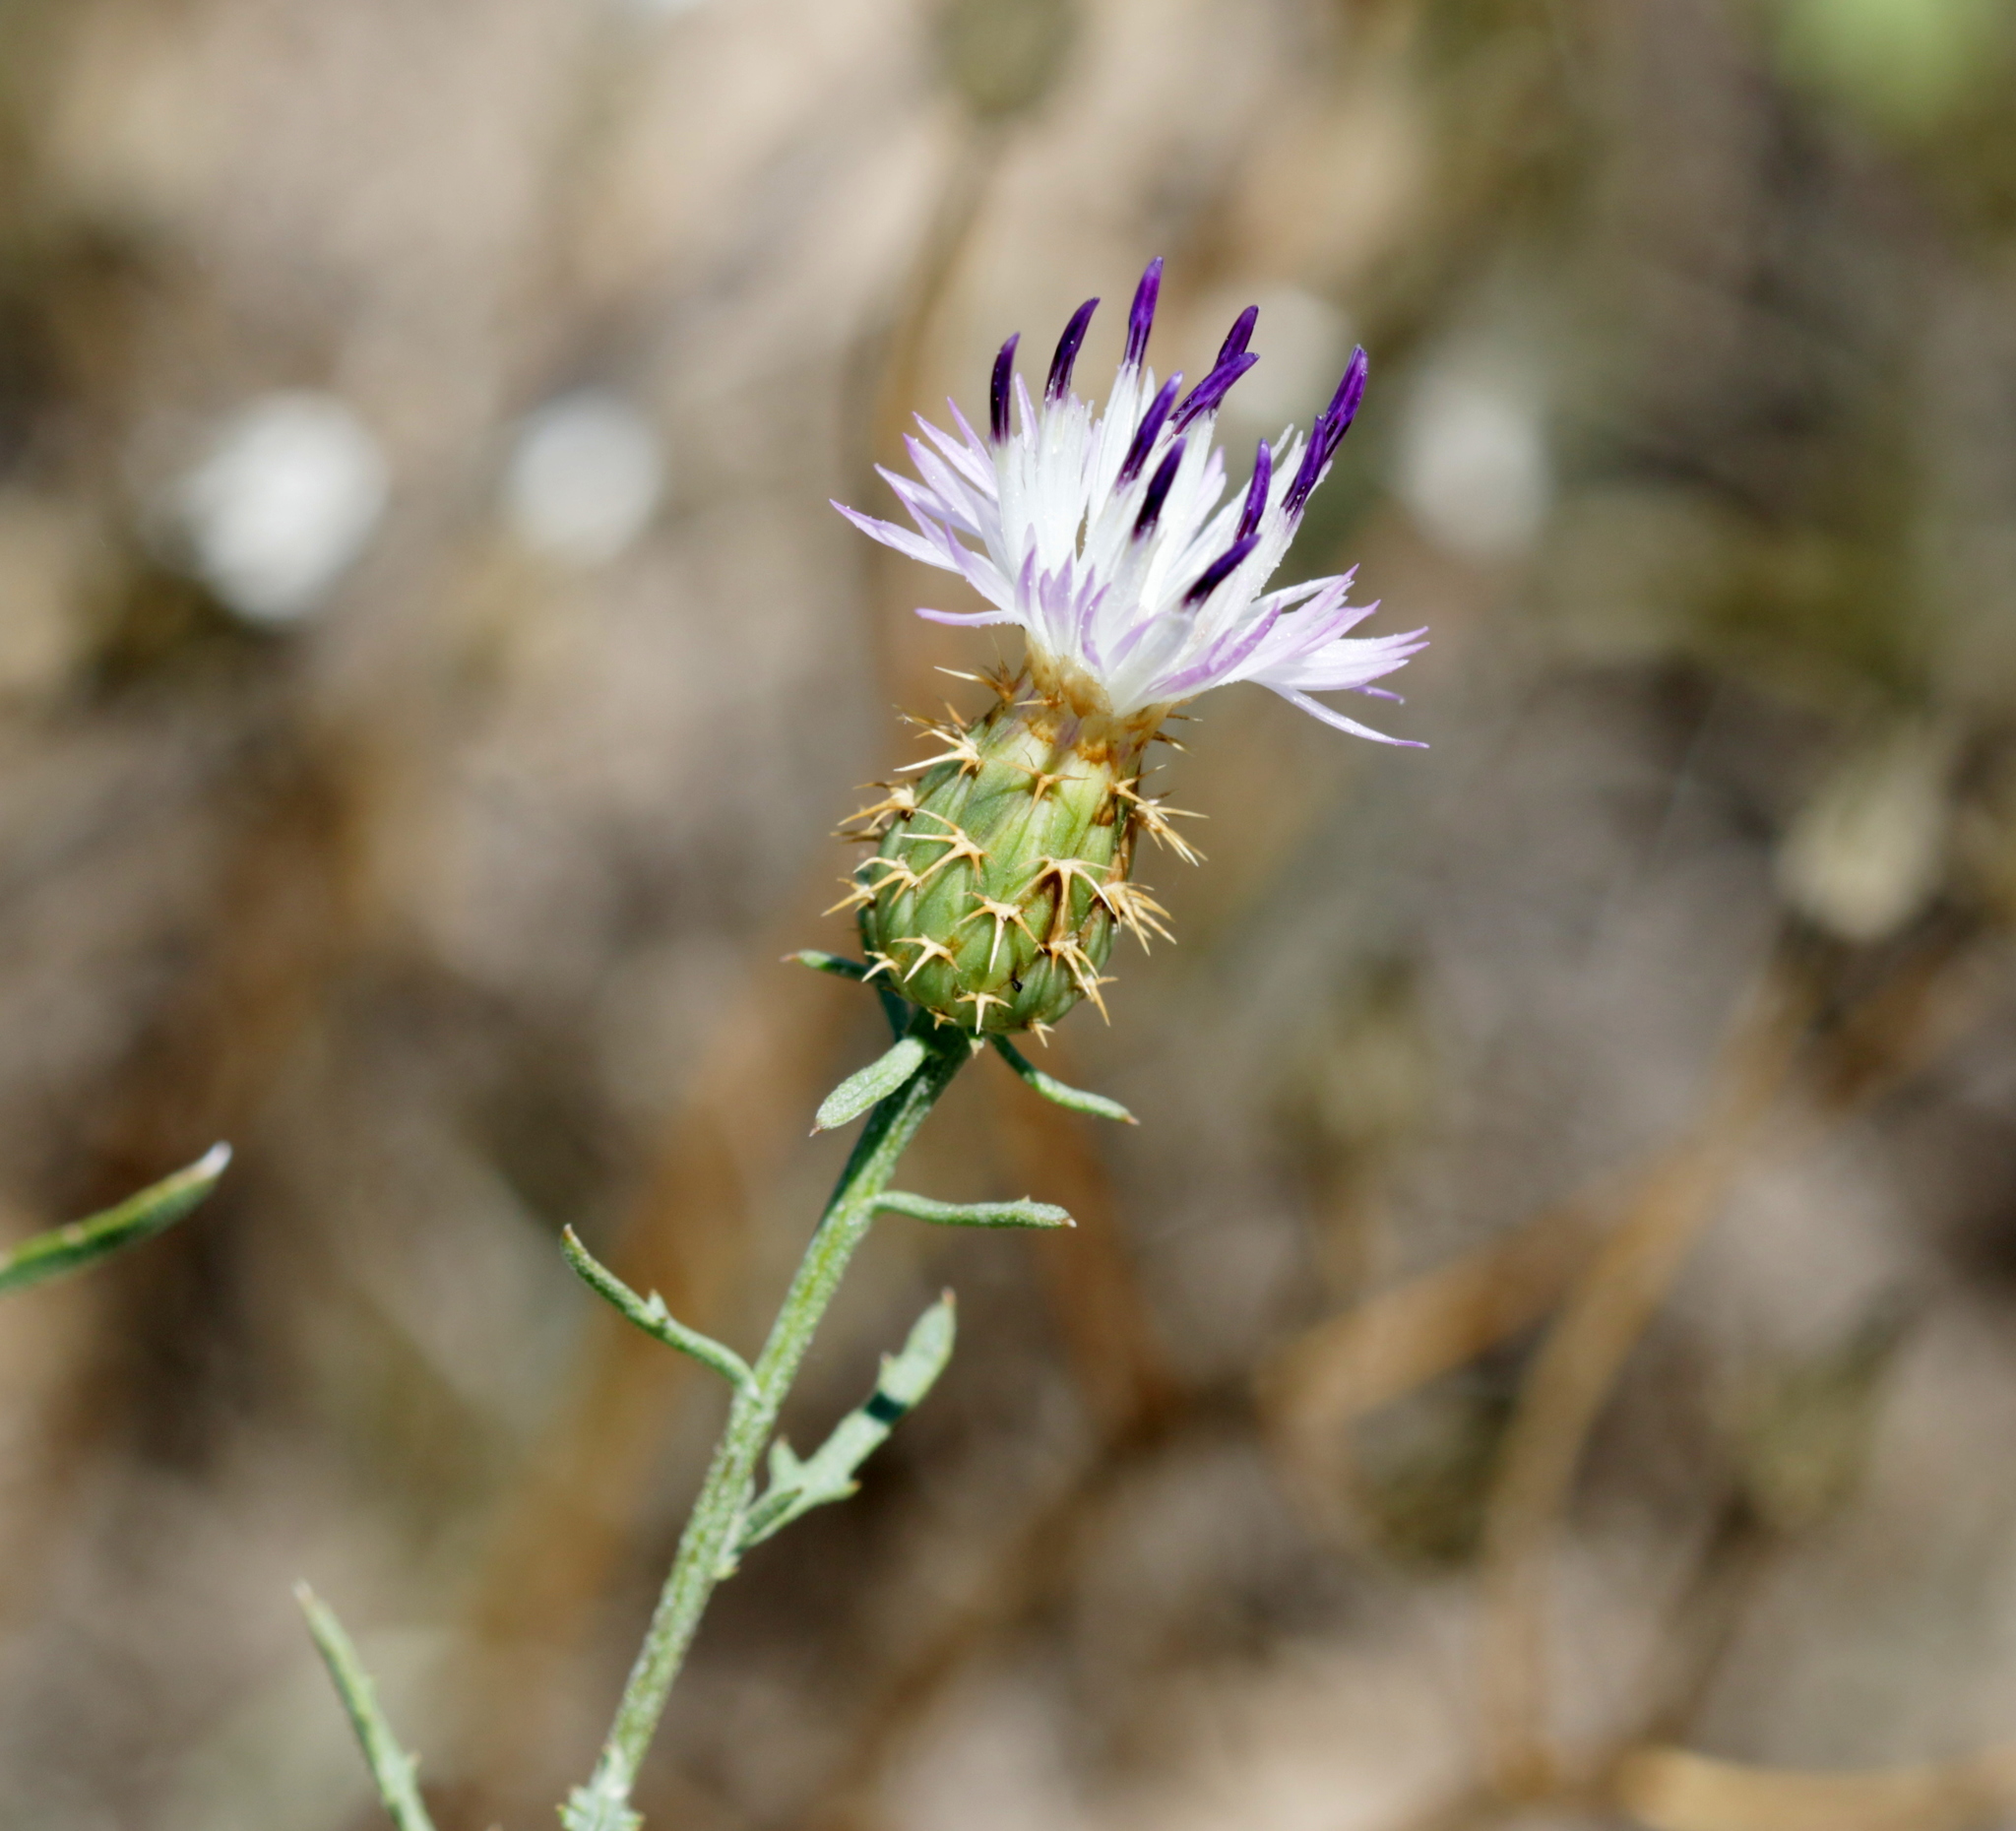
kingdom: Plantae
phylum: Tracheophyta
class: Magnoliopsida
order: Asterales
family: Asteraceae
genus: Centaurea
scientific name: Centaurea aspera
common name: Rough star-thistle
